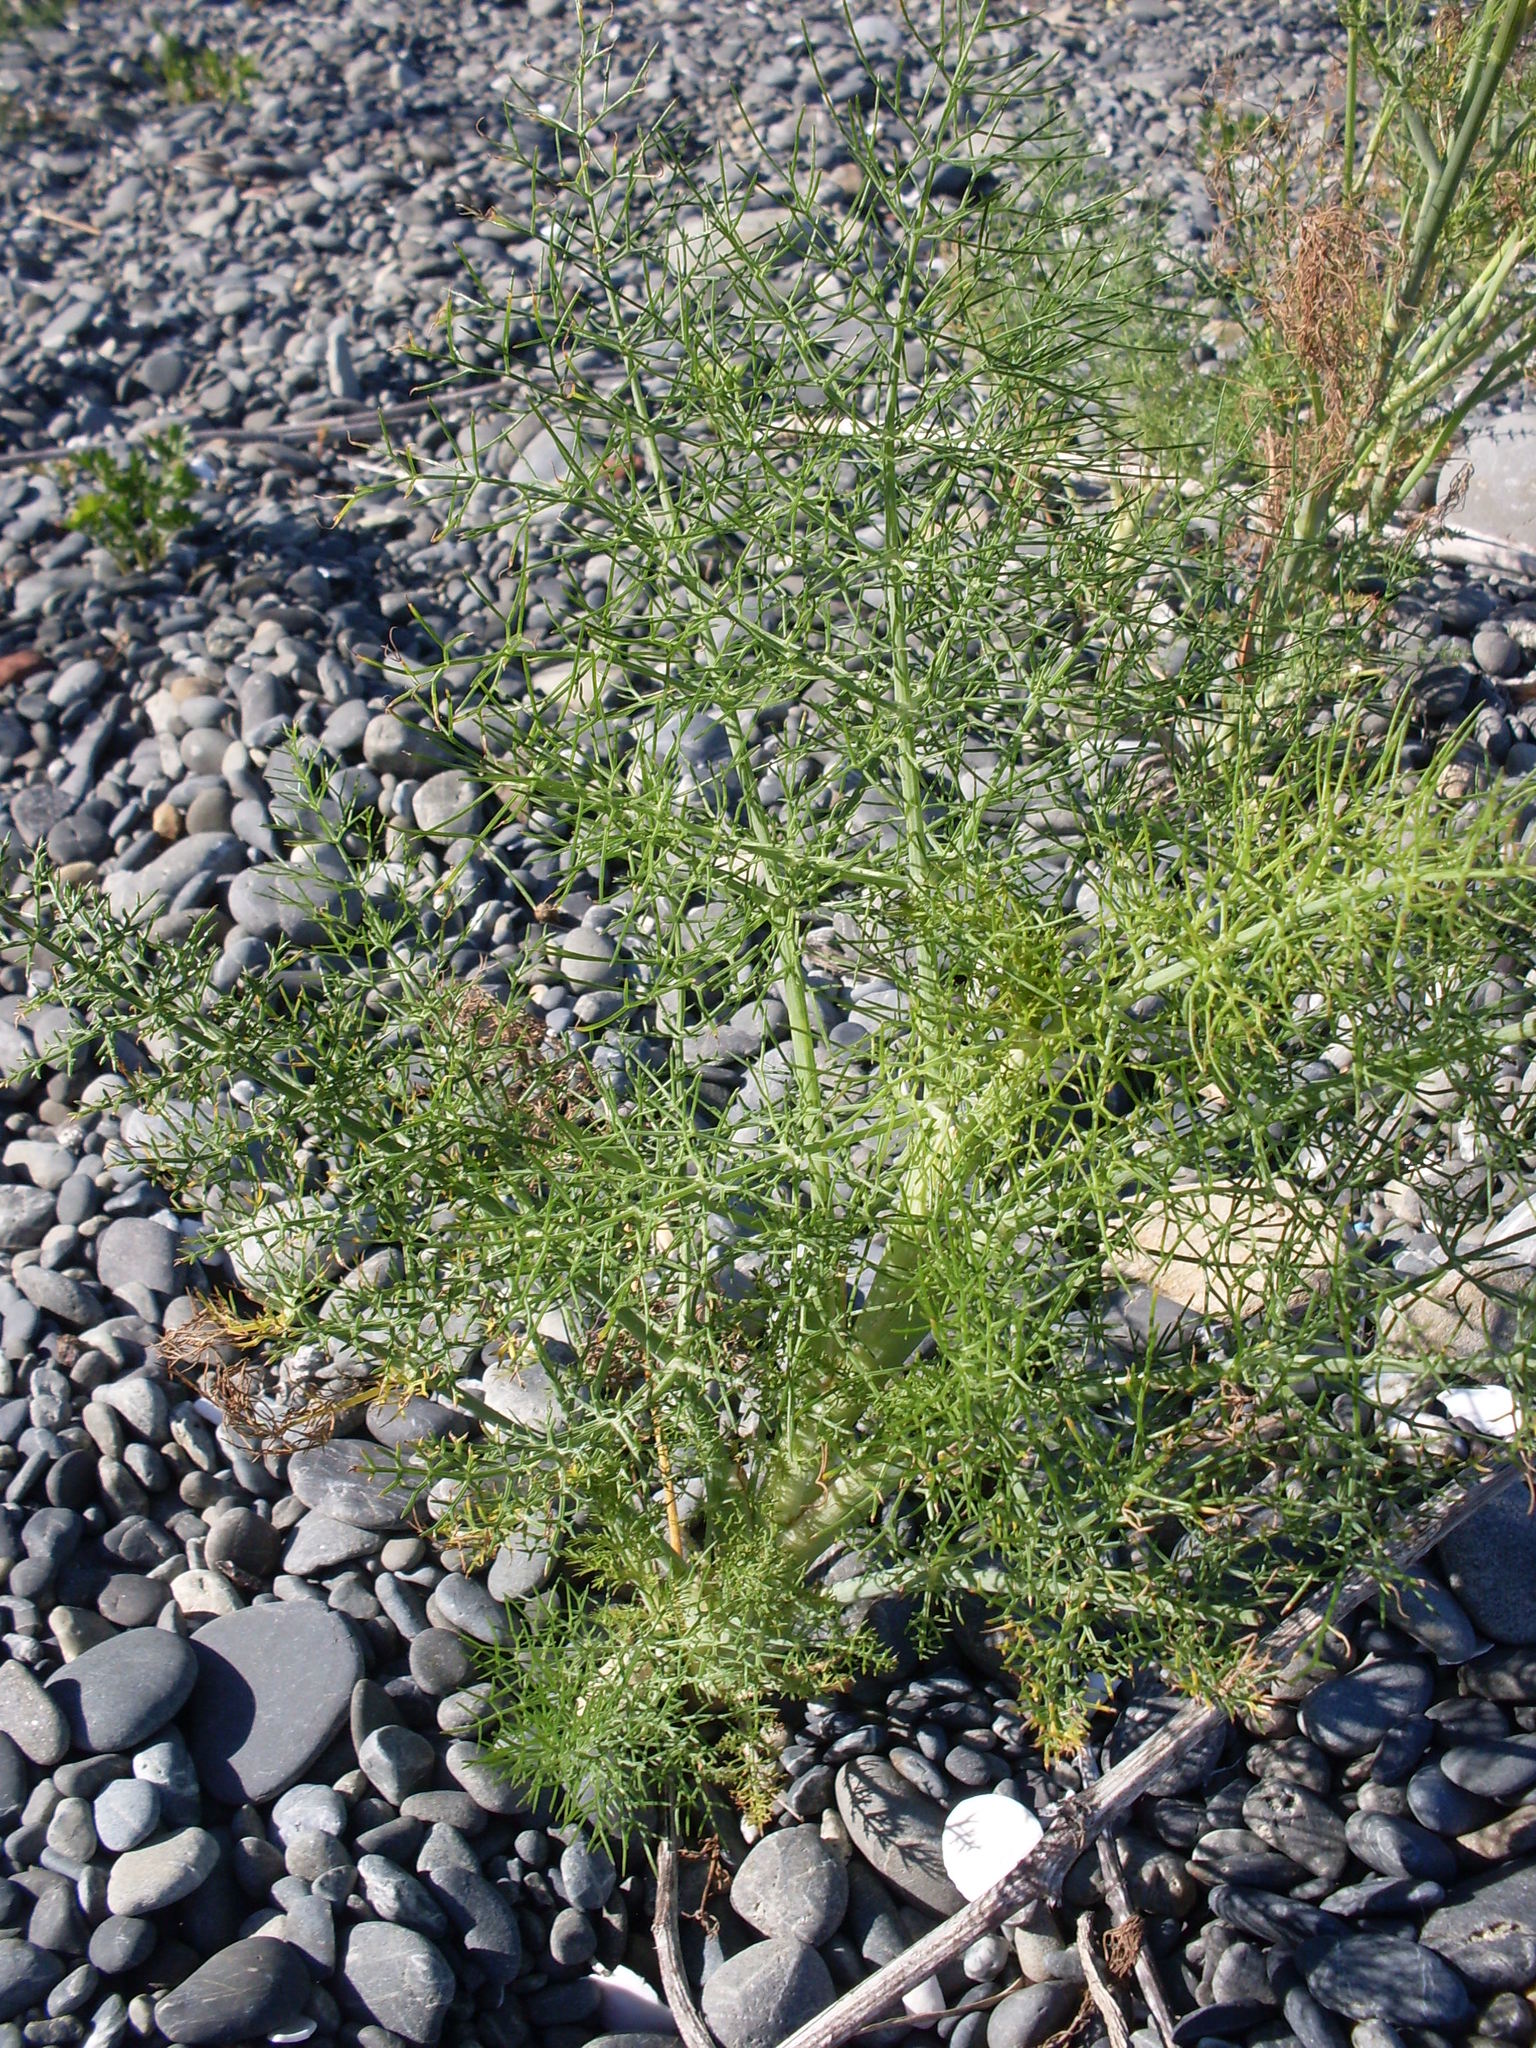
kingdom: Plantae
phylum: Tracheophyta
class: Magnoliopsida
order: Apiales
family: Apiaceae
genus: Foeniculum
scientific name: Foeniculum vulgare
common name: Fennel
